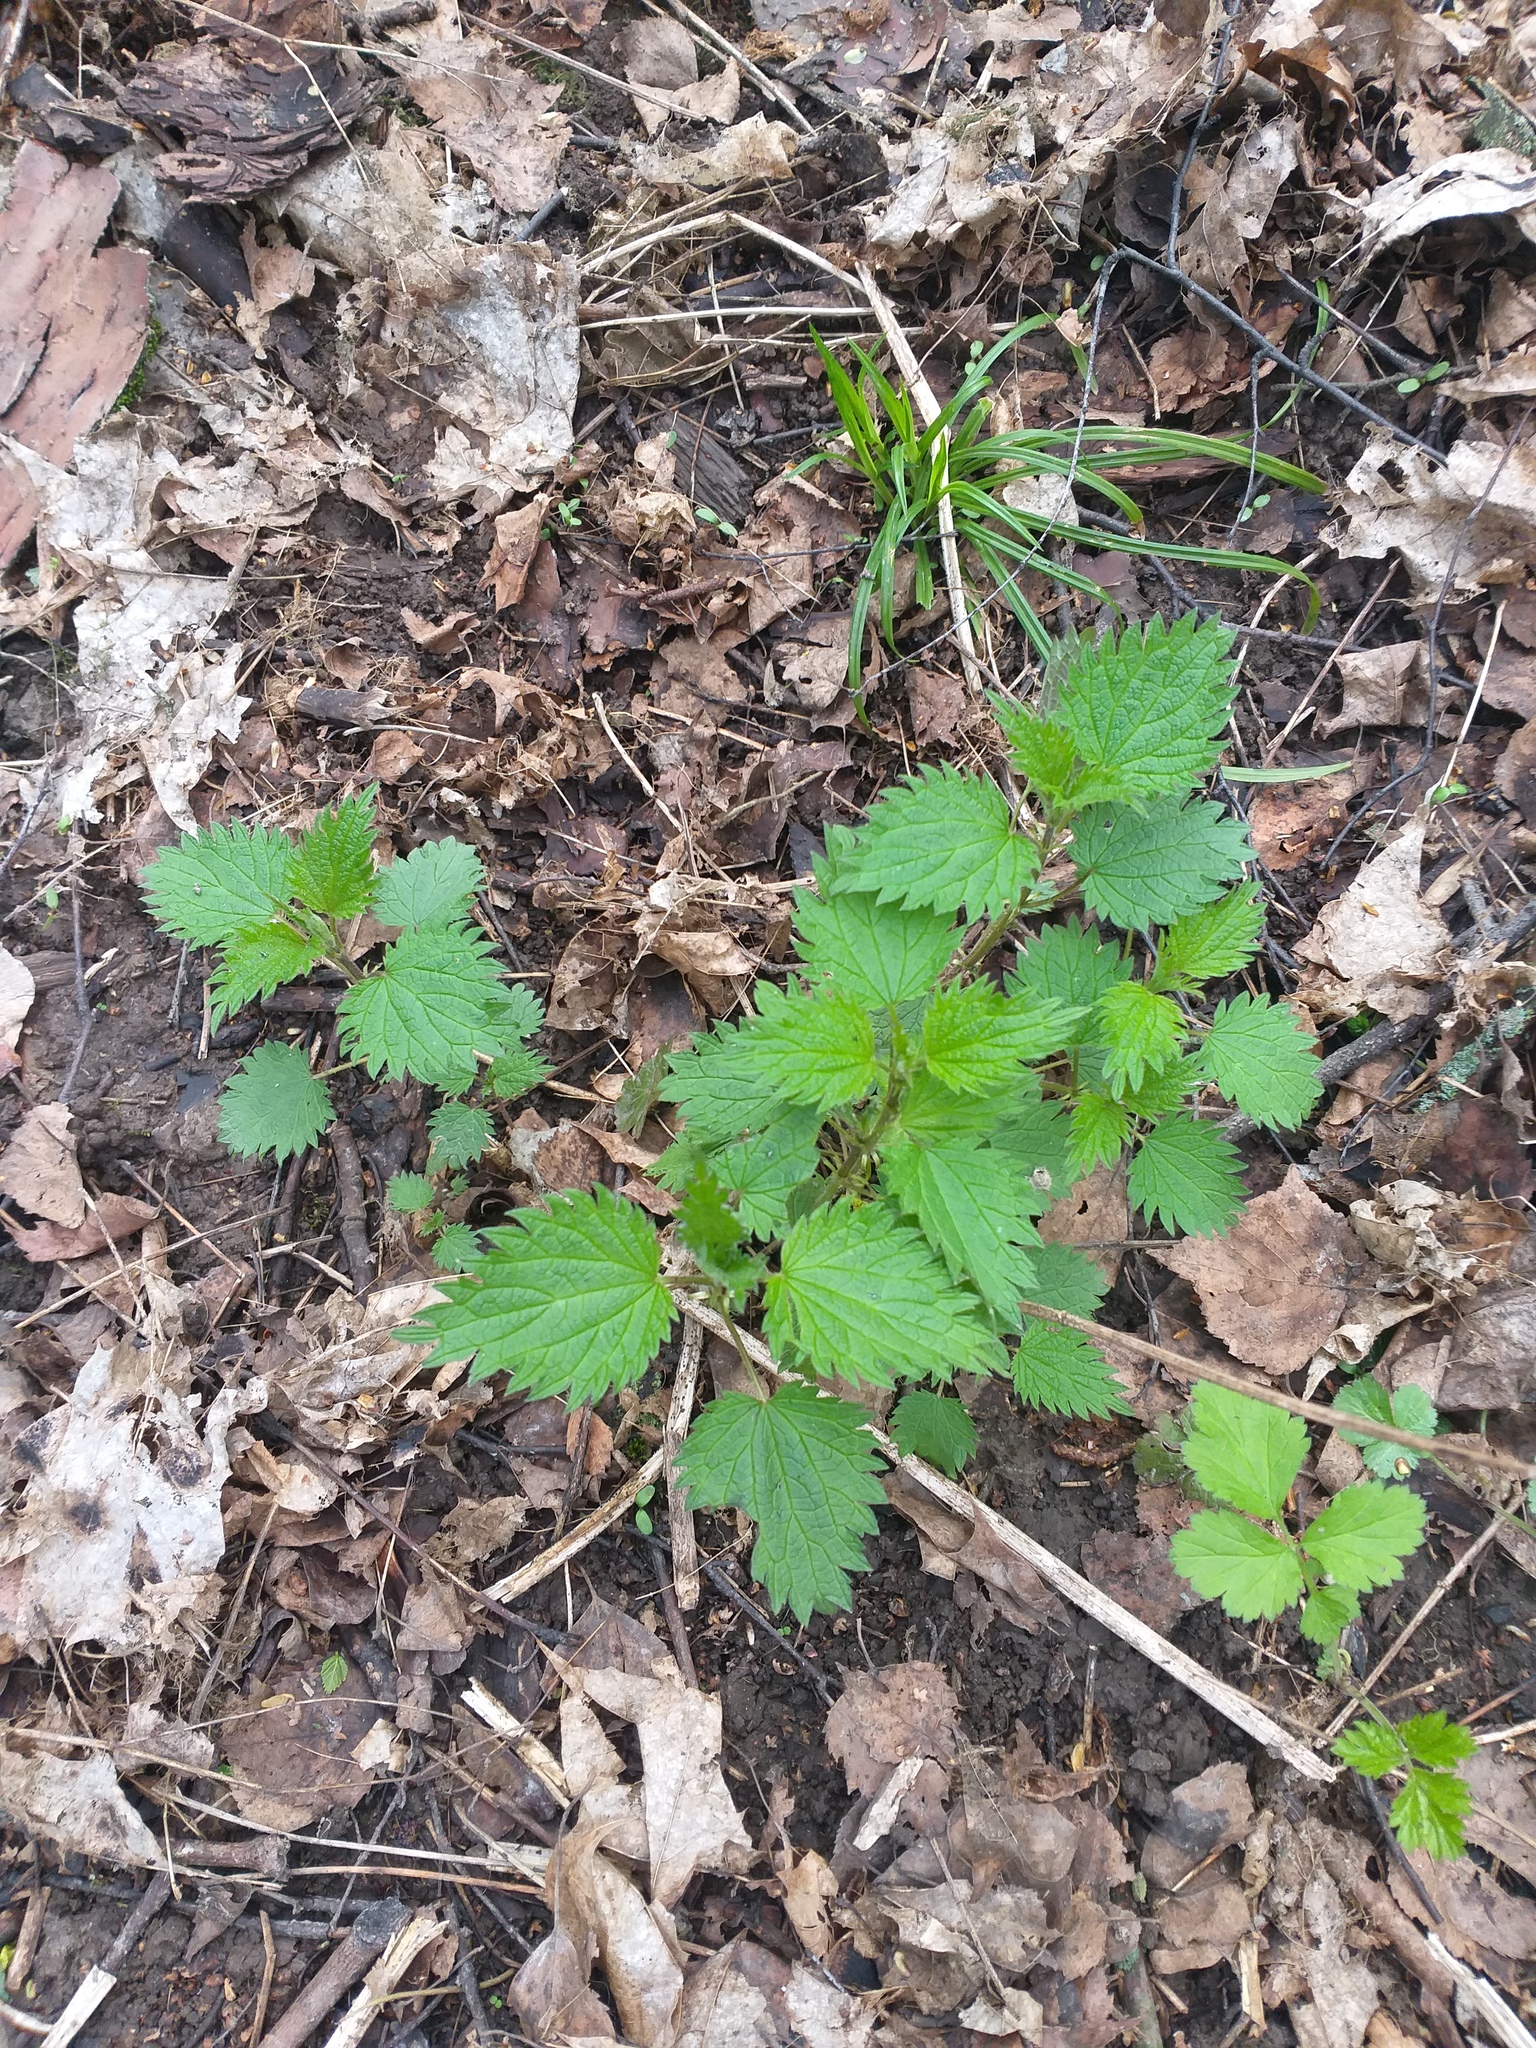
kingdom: Plantae
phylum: Tracheophyta
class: Magnoliopsida
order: Rosales
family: Urticaceae
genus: Urtica
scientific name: Urtica dioica
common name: Common nettle
